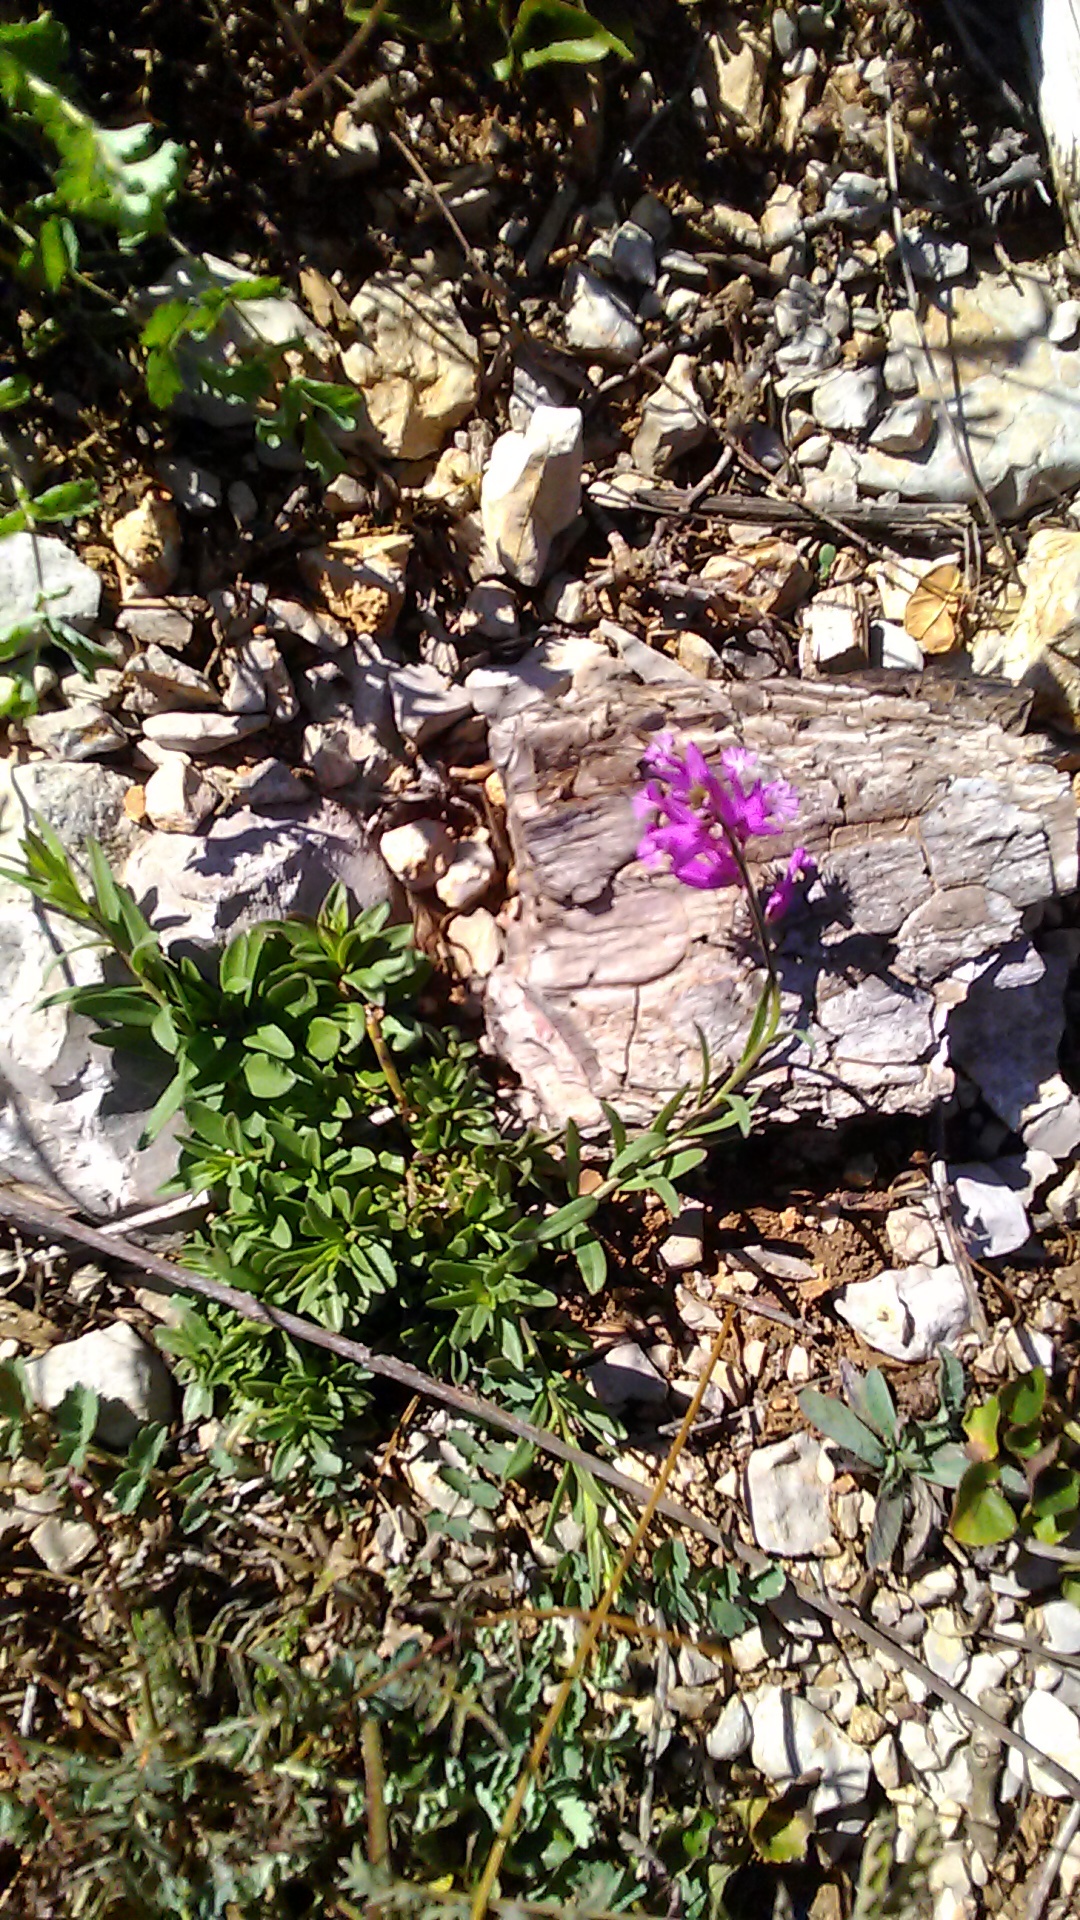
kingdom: Plantae
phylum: Tracheophyta
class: Magnoliopsida
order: Fabales
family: Polygalaceae
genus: Polygala
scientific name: Polygala major
